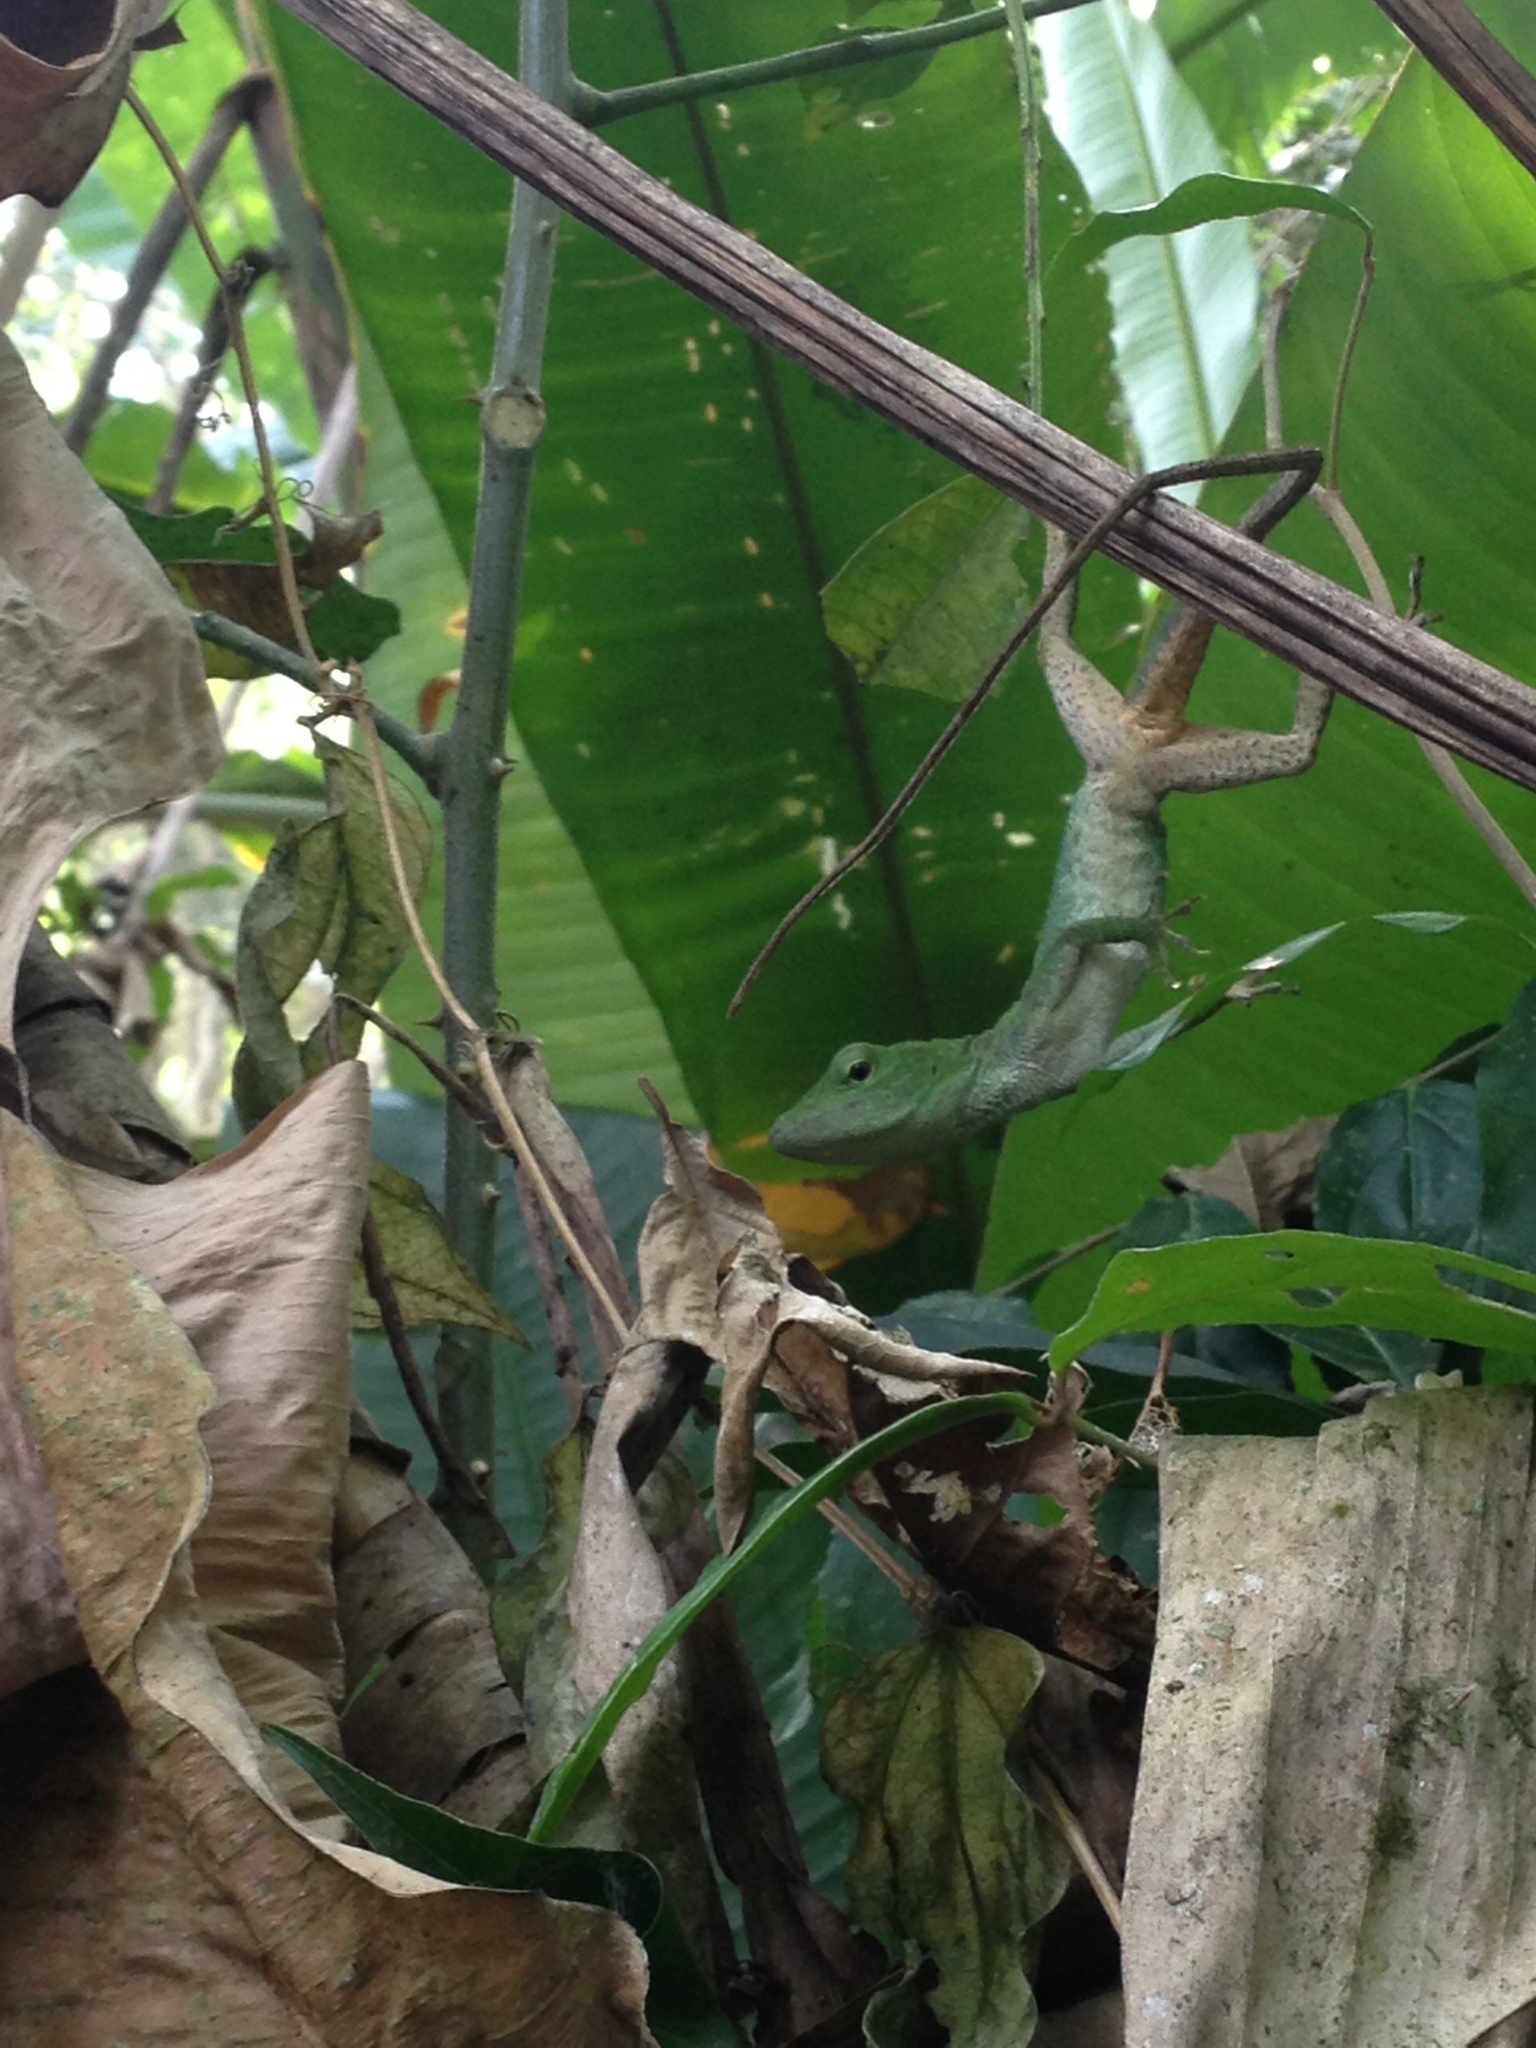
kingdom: Animalia
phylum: Chordata
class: Squamata
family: Dactyloidae
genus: Anolis
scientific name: Anolis biporcatus
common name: Giant green anole
